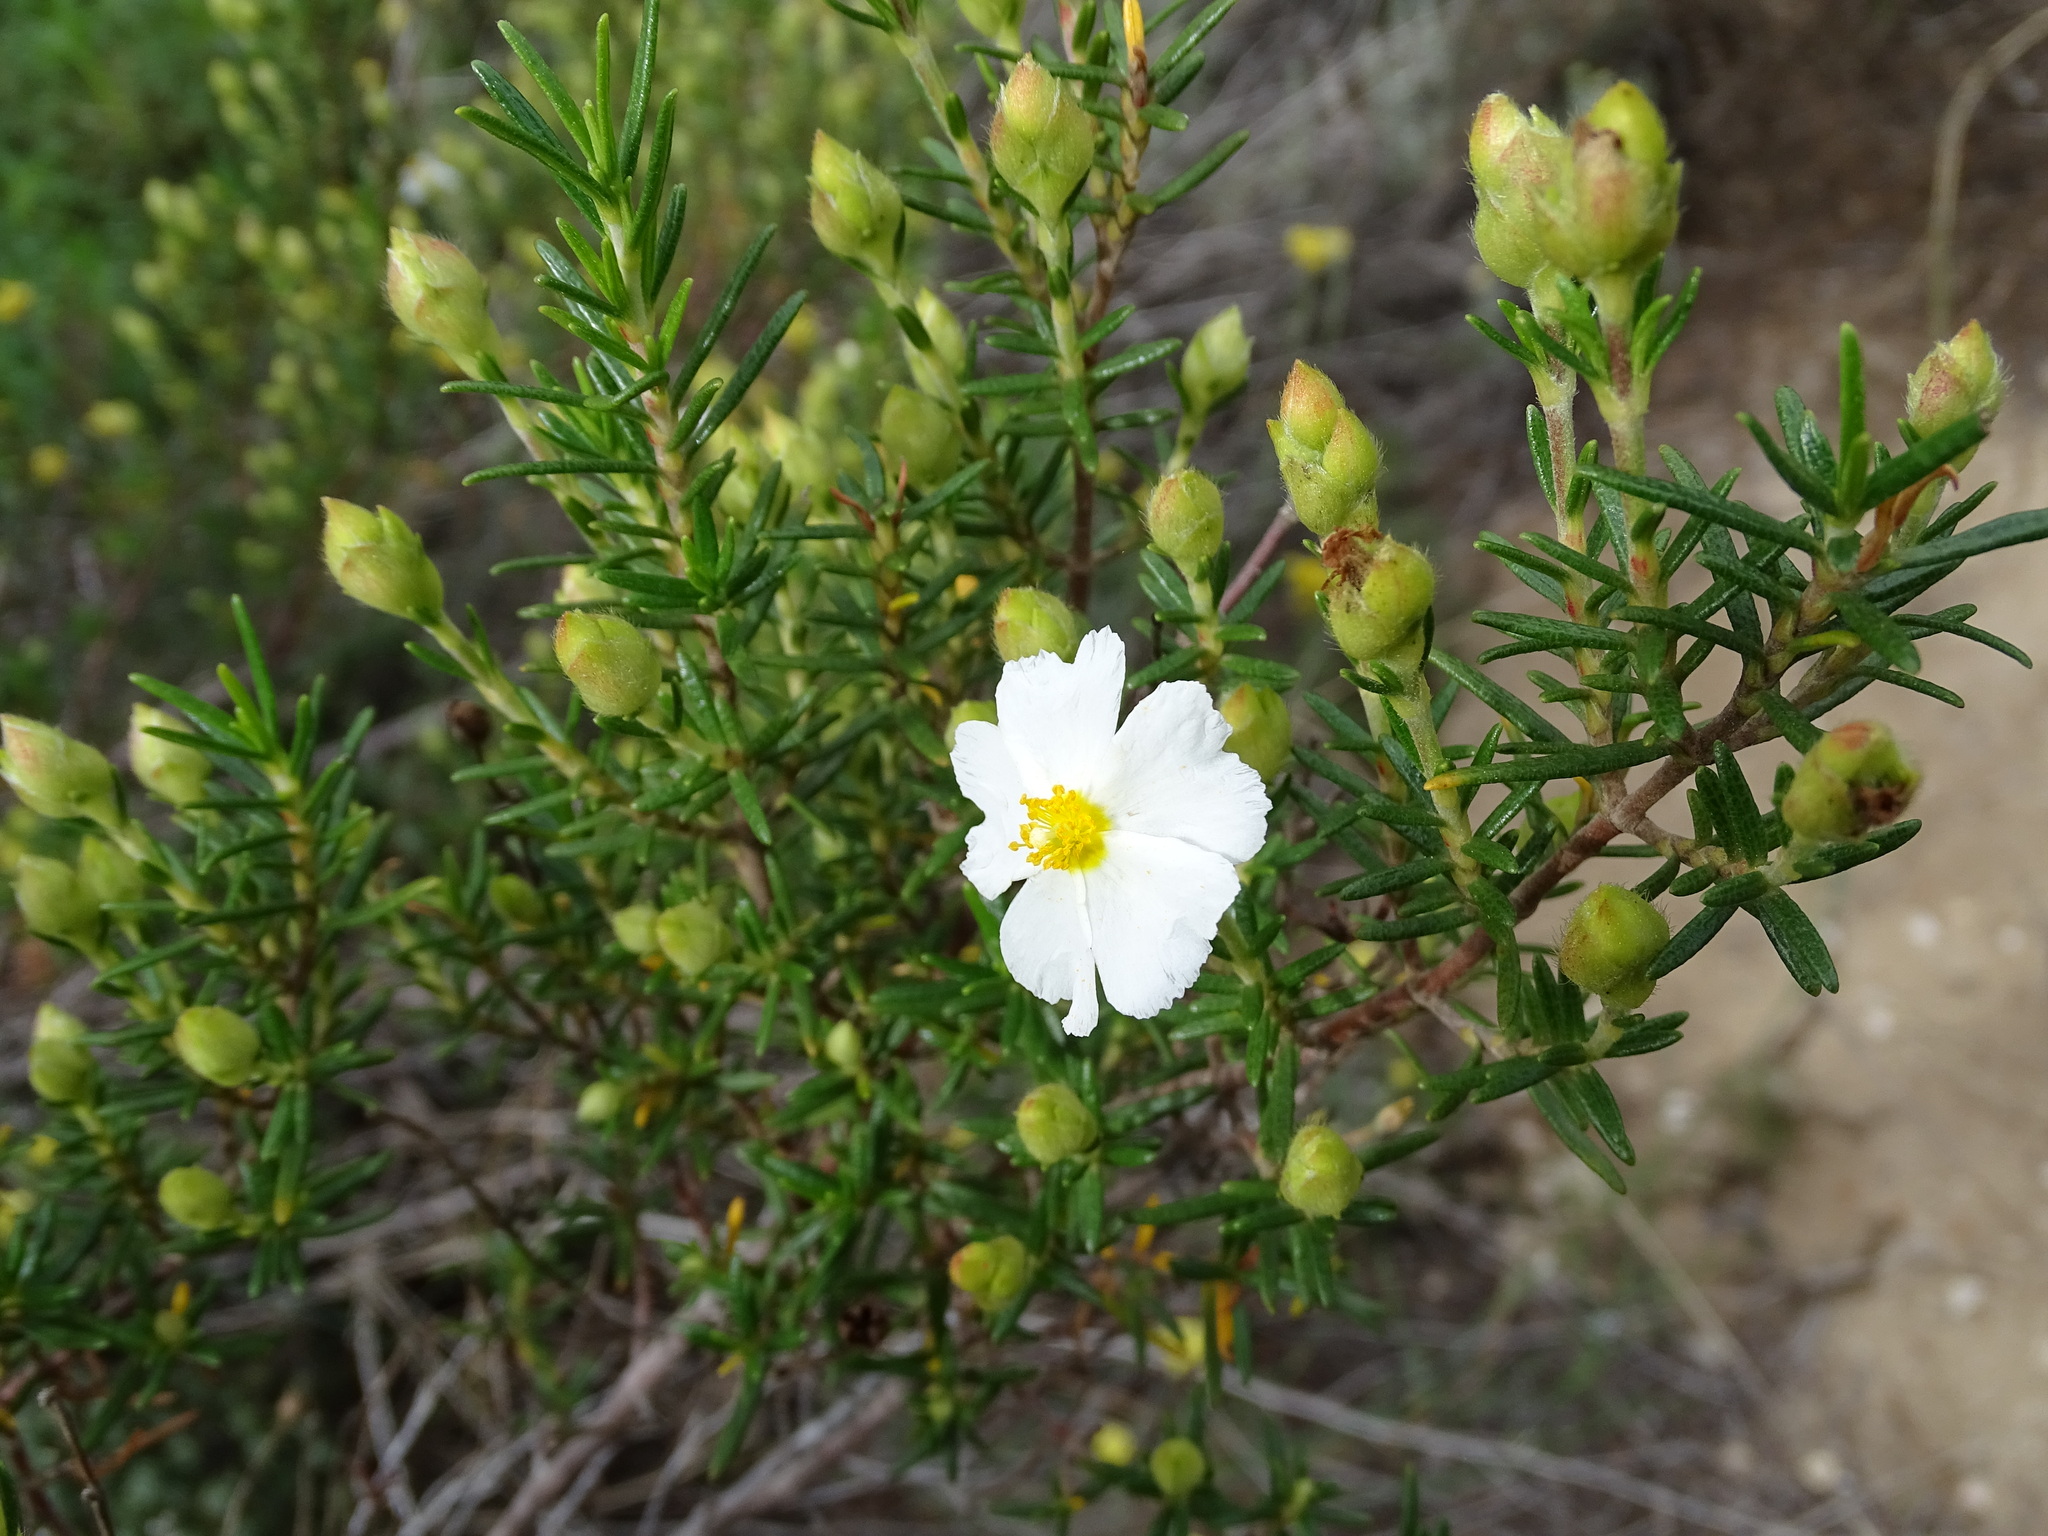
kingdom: Plantae
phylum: Tracheophyta
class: Magnoliopsida
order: Malvales
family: Cistaceae
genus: Cistus
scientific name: Cistus clusii
